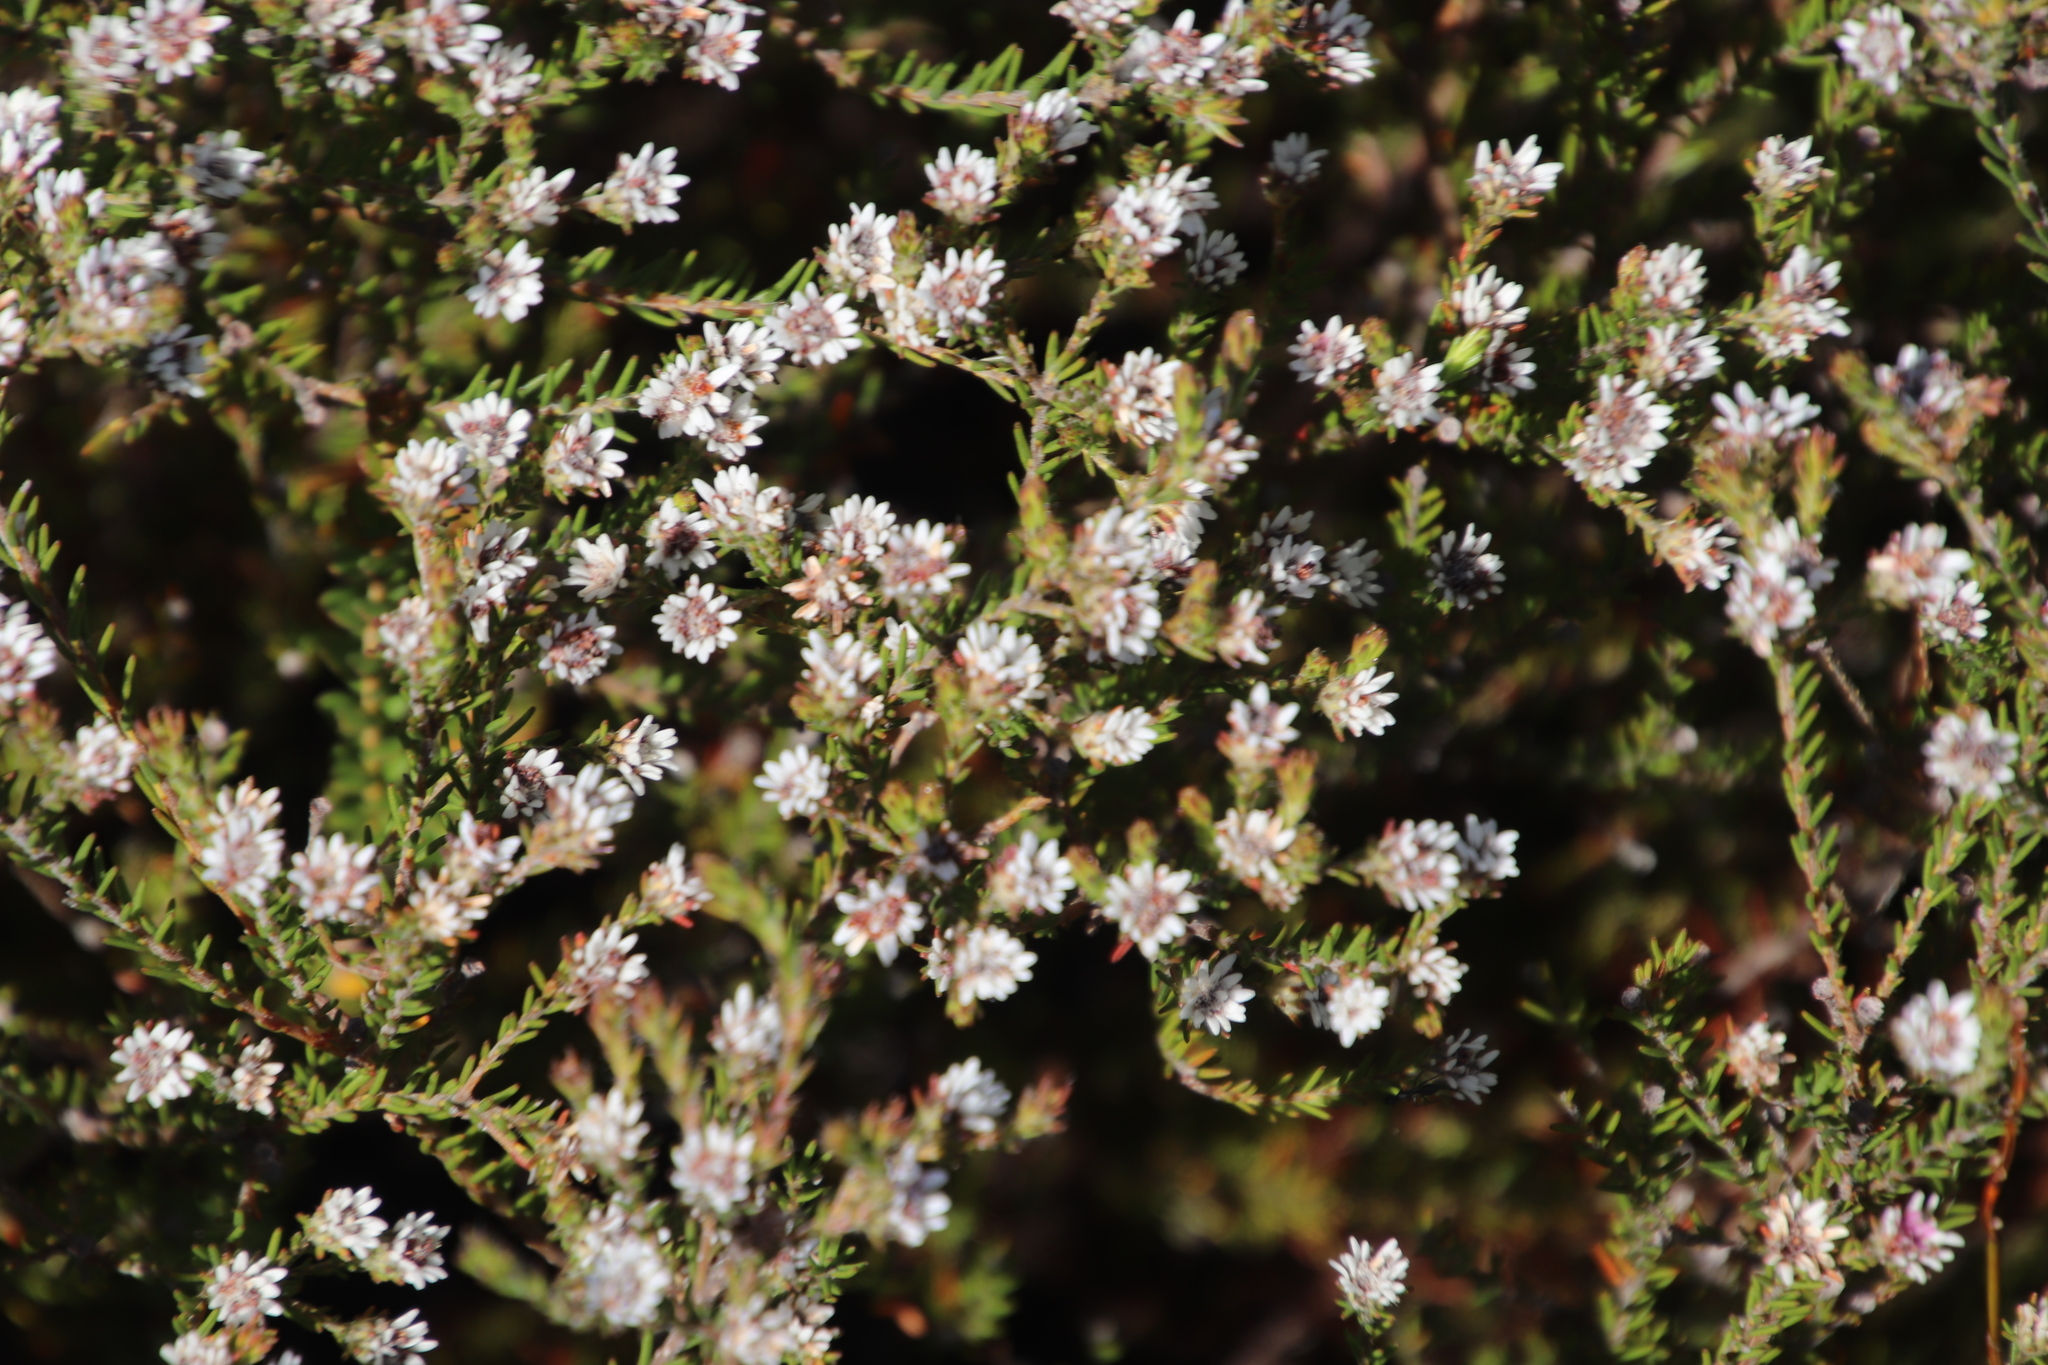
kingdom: Plantae
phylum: Tracheophyta
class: Magnoliopsida
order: Bruniales
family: Bruniaceae
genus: Staavia
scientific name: Staavia radiata
